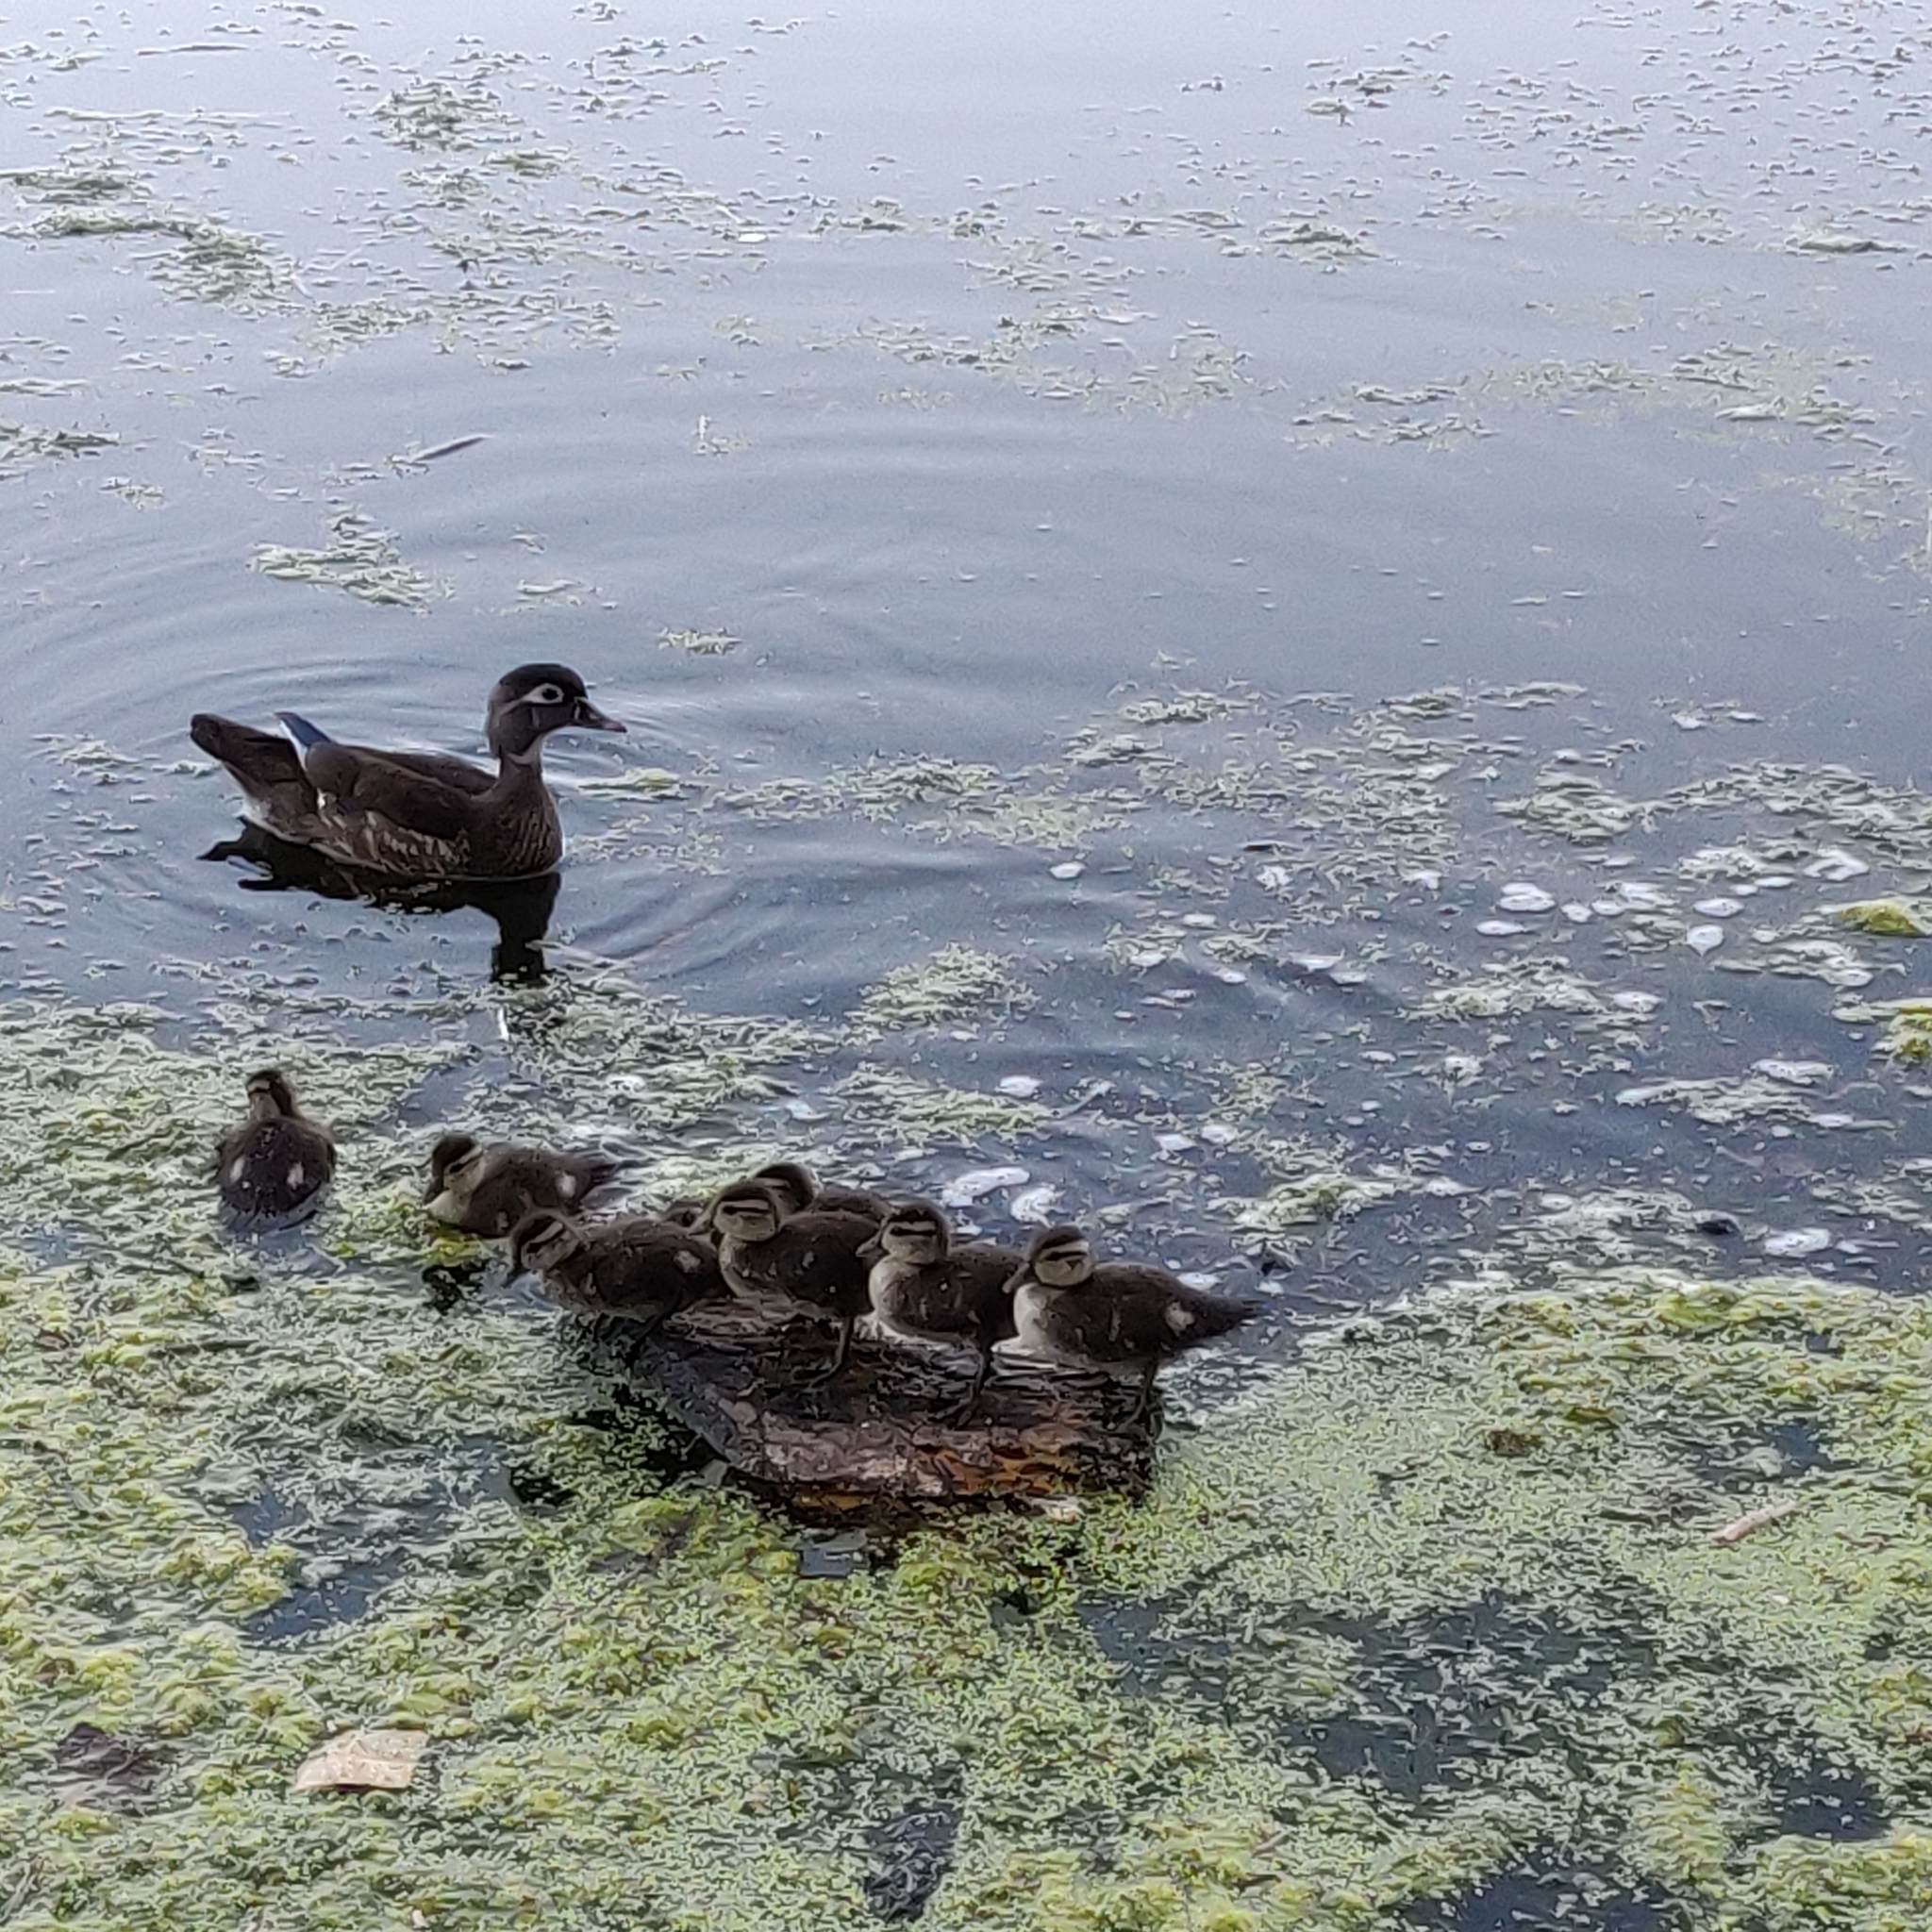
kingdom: Animalia
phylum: Chordata
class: Aves
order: Anseriformes
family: Anatidae
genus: Aix
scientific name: Aix sponsa
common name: Wood duck
